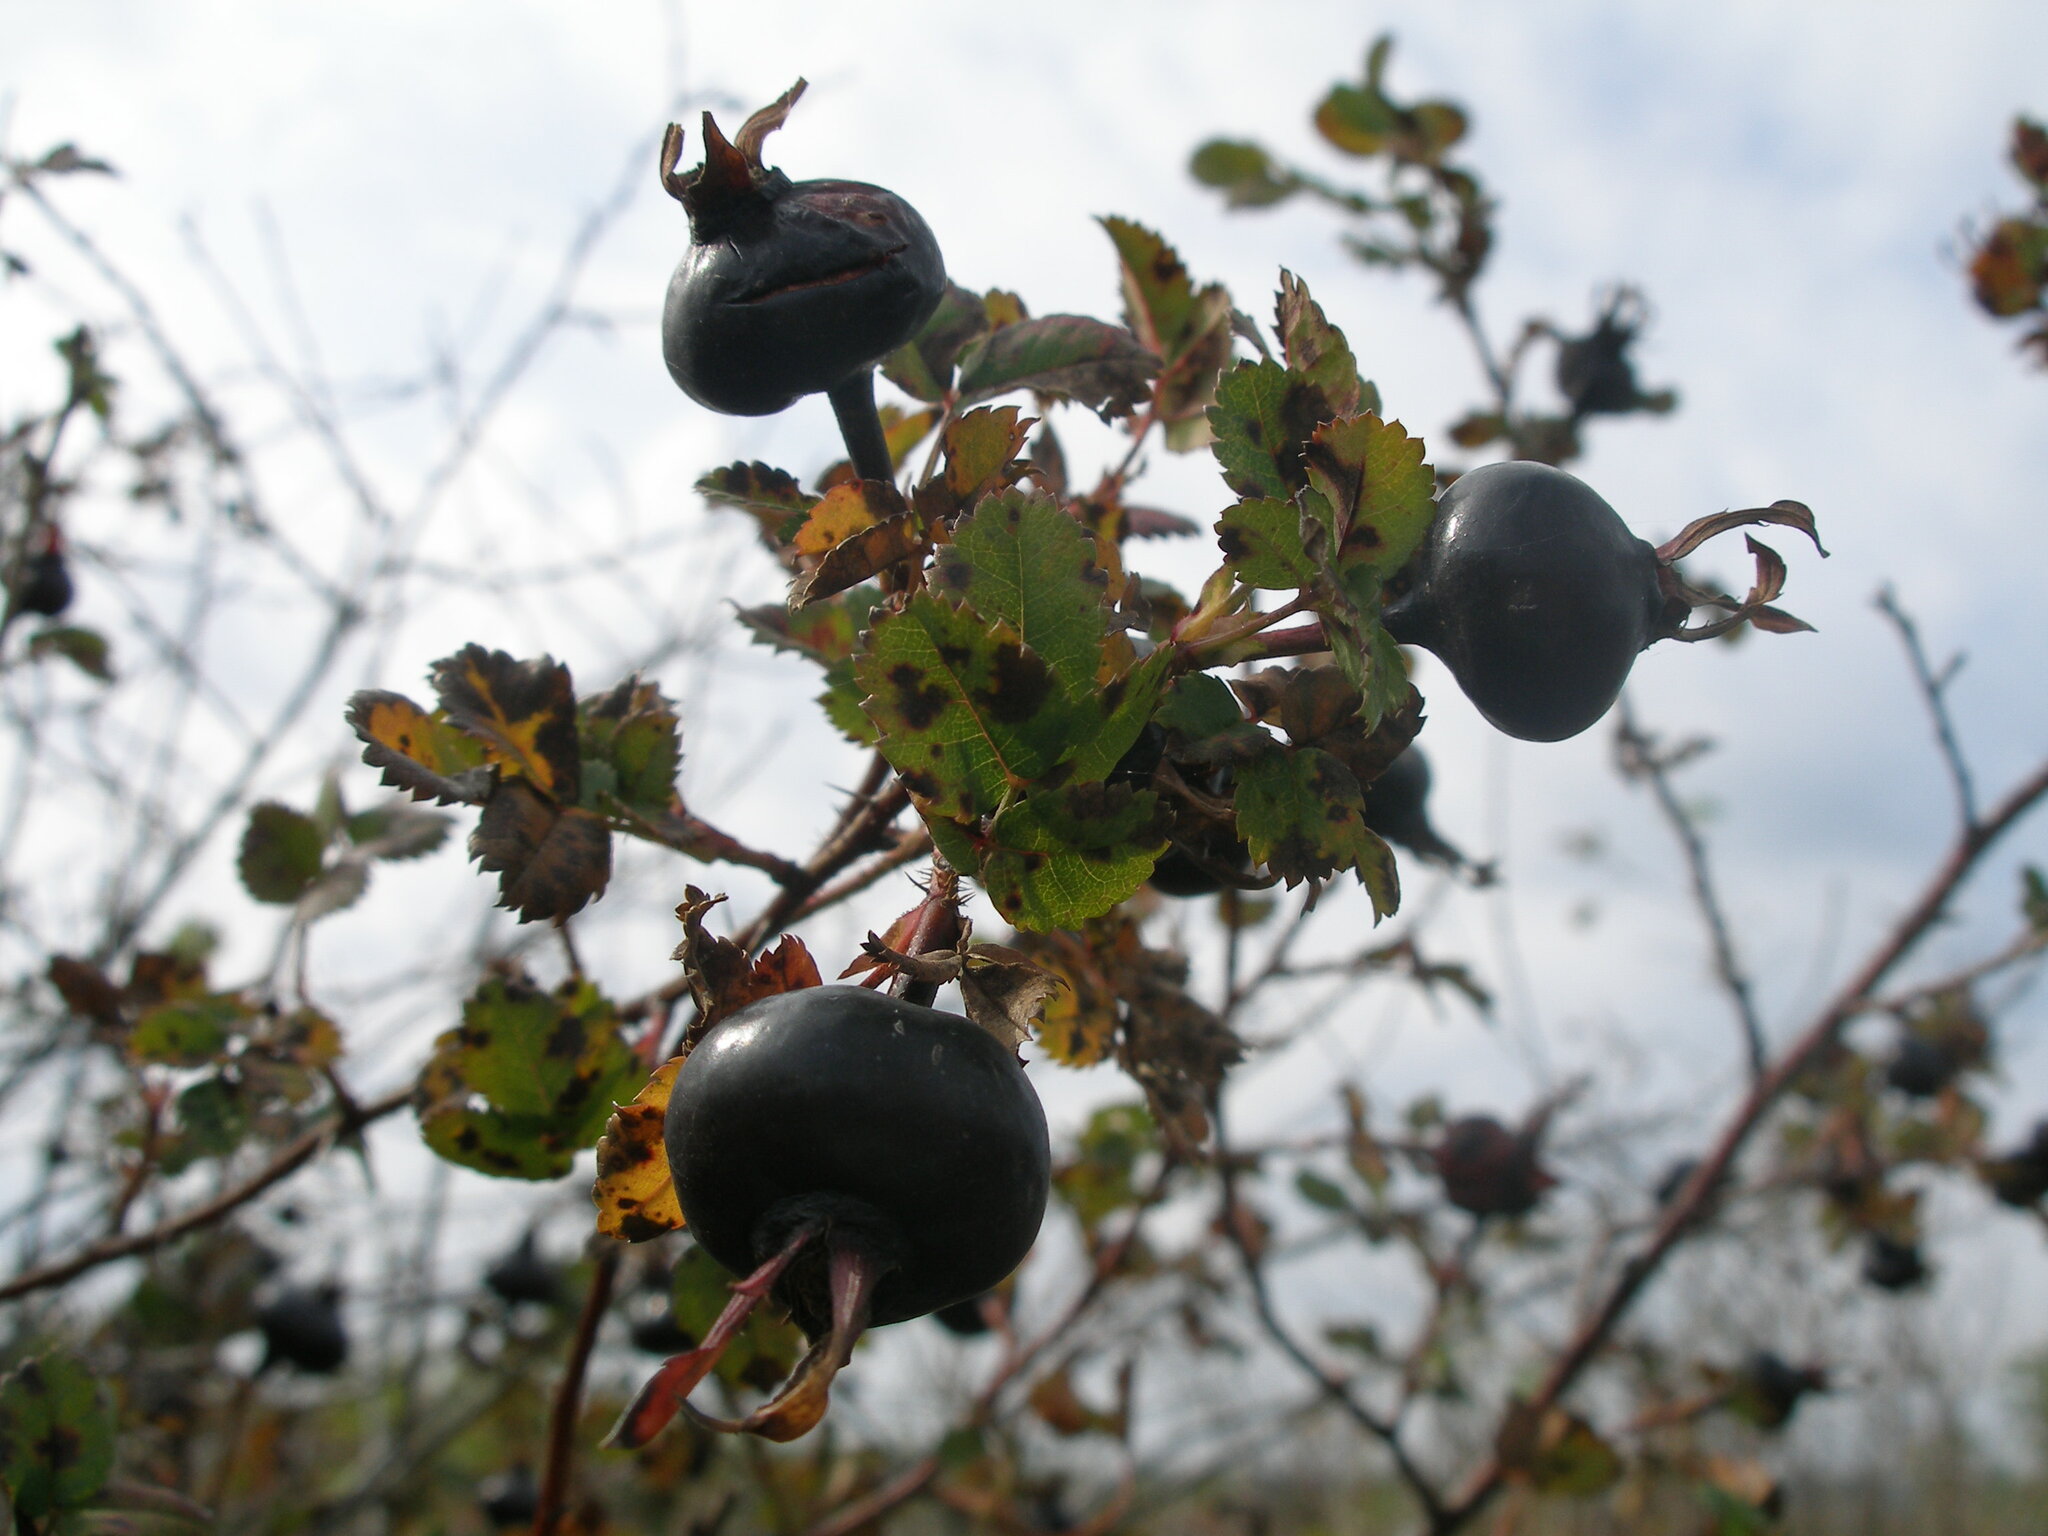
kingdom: Plantae
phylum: Tracheophyta
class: Magnoliopsida
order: Rosales
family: Rosaceae
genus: Rosa
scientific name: Rosa spinosissima
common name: Burnet rose
